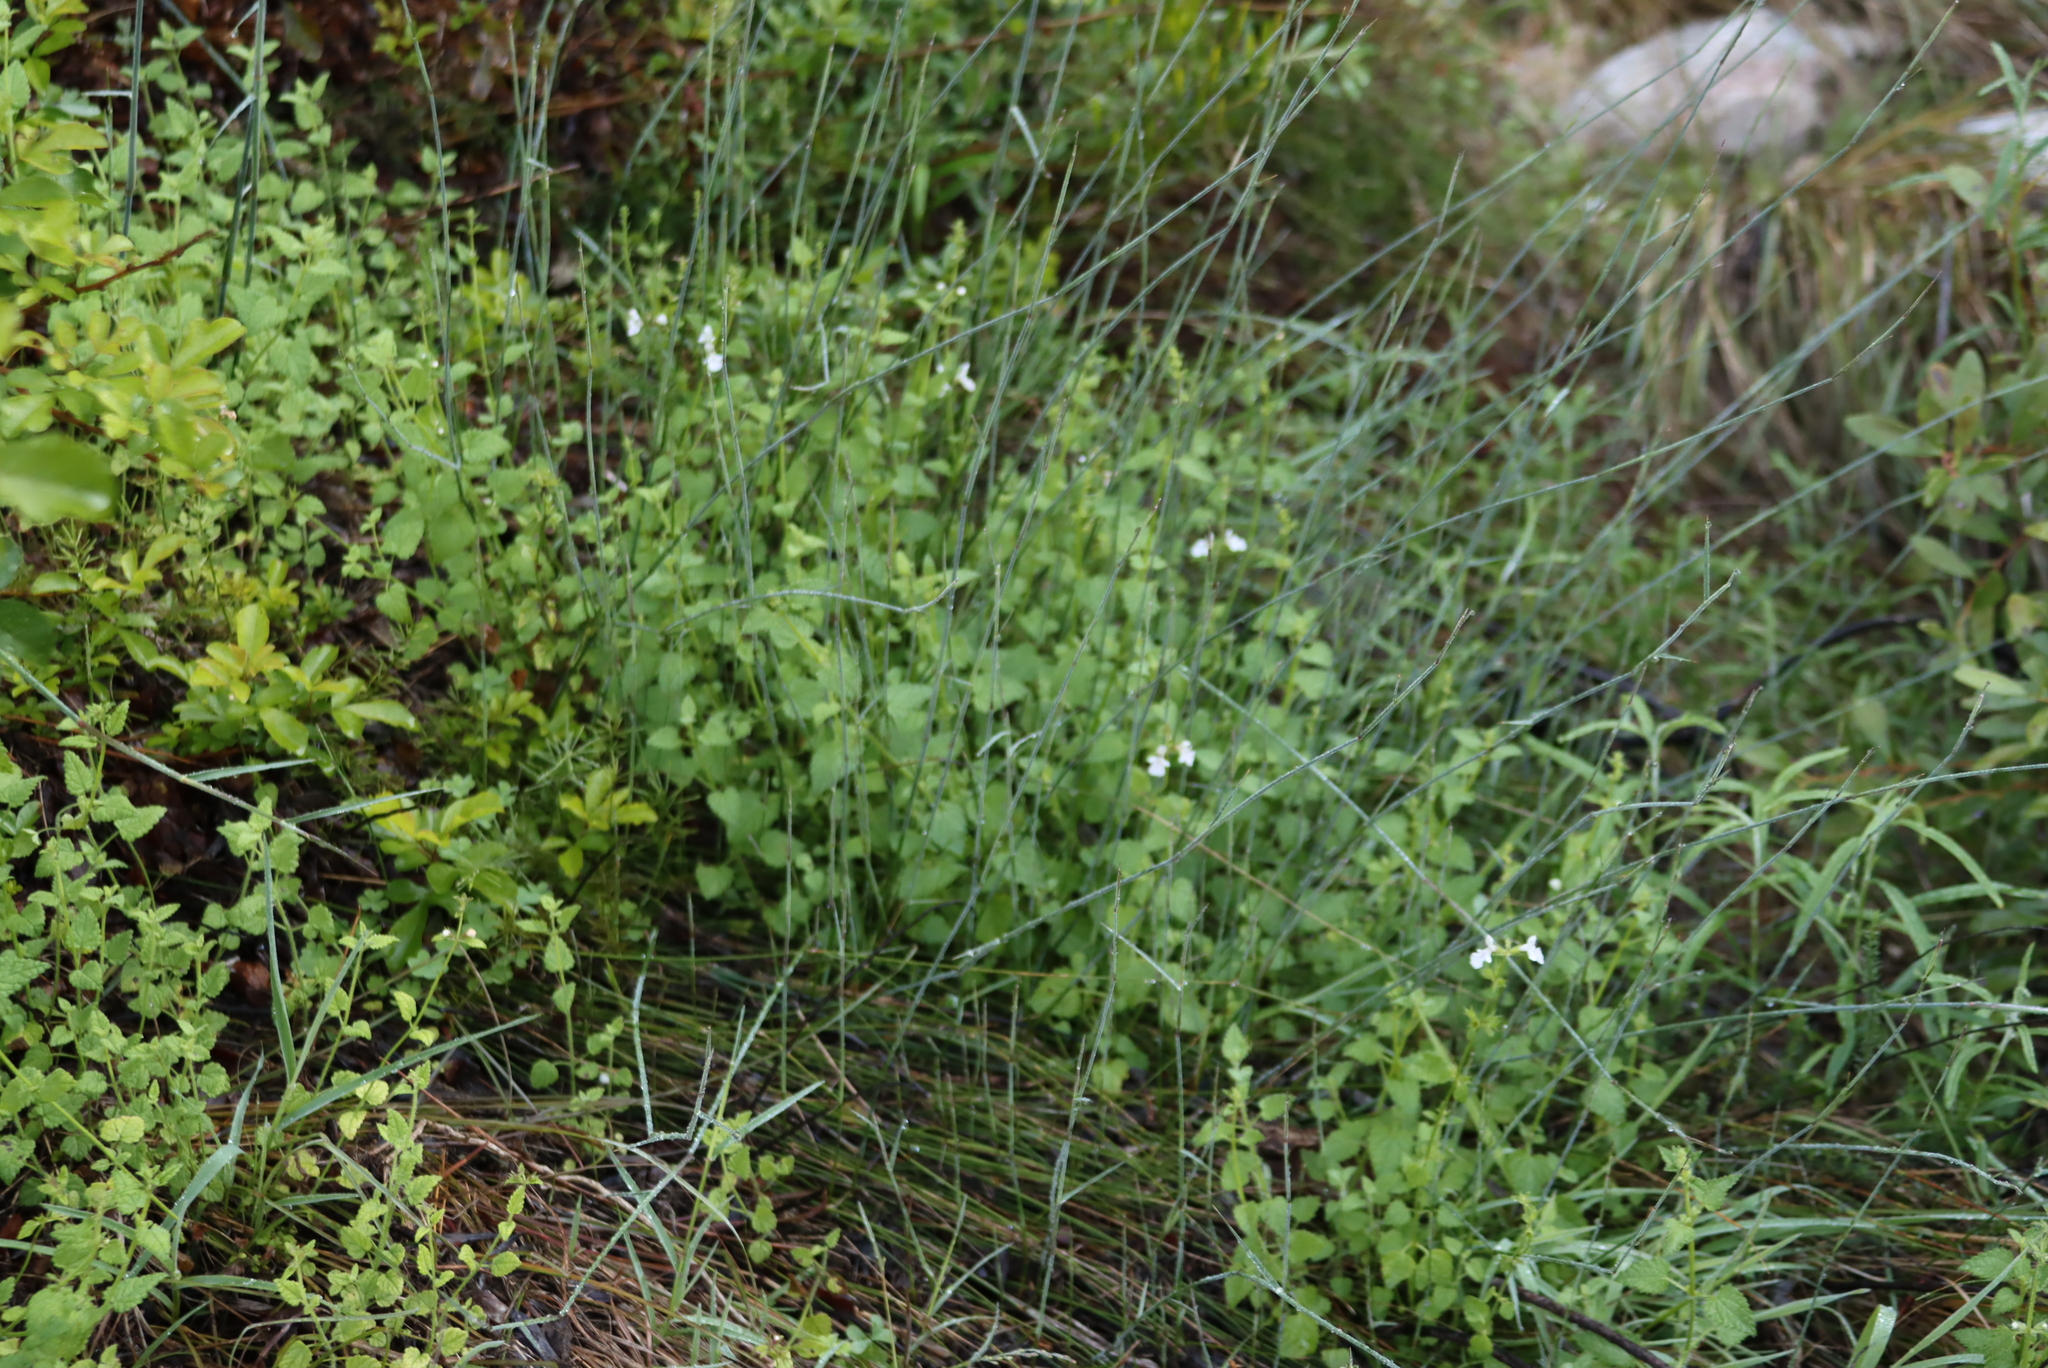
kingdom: Plantae
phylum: Tracheophyta
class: Magnoliopsida
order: Lamiales
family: Lamiaceae
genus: Stachys
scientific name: Stachys aethiopica
